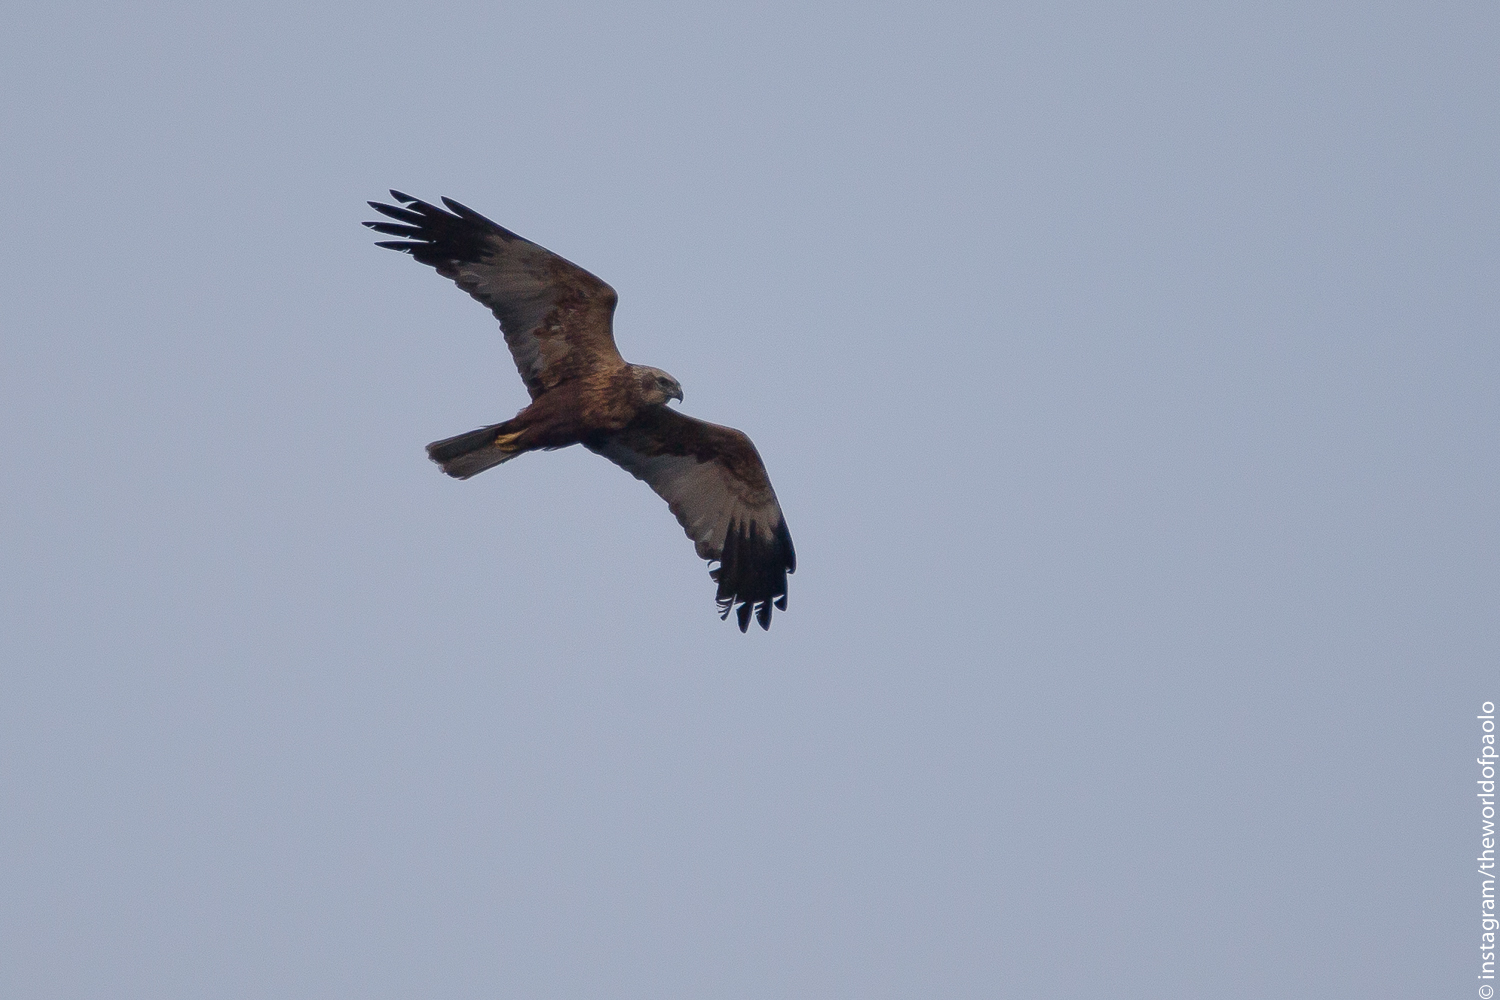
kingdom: Animalia
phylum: Chordata
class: Aves
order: Accipitriformes
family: Accipitridae
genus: Circus
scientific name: Circus aeruginosus
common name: Western marsh harrier
